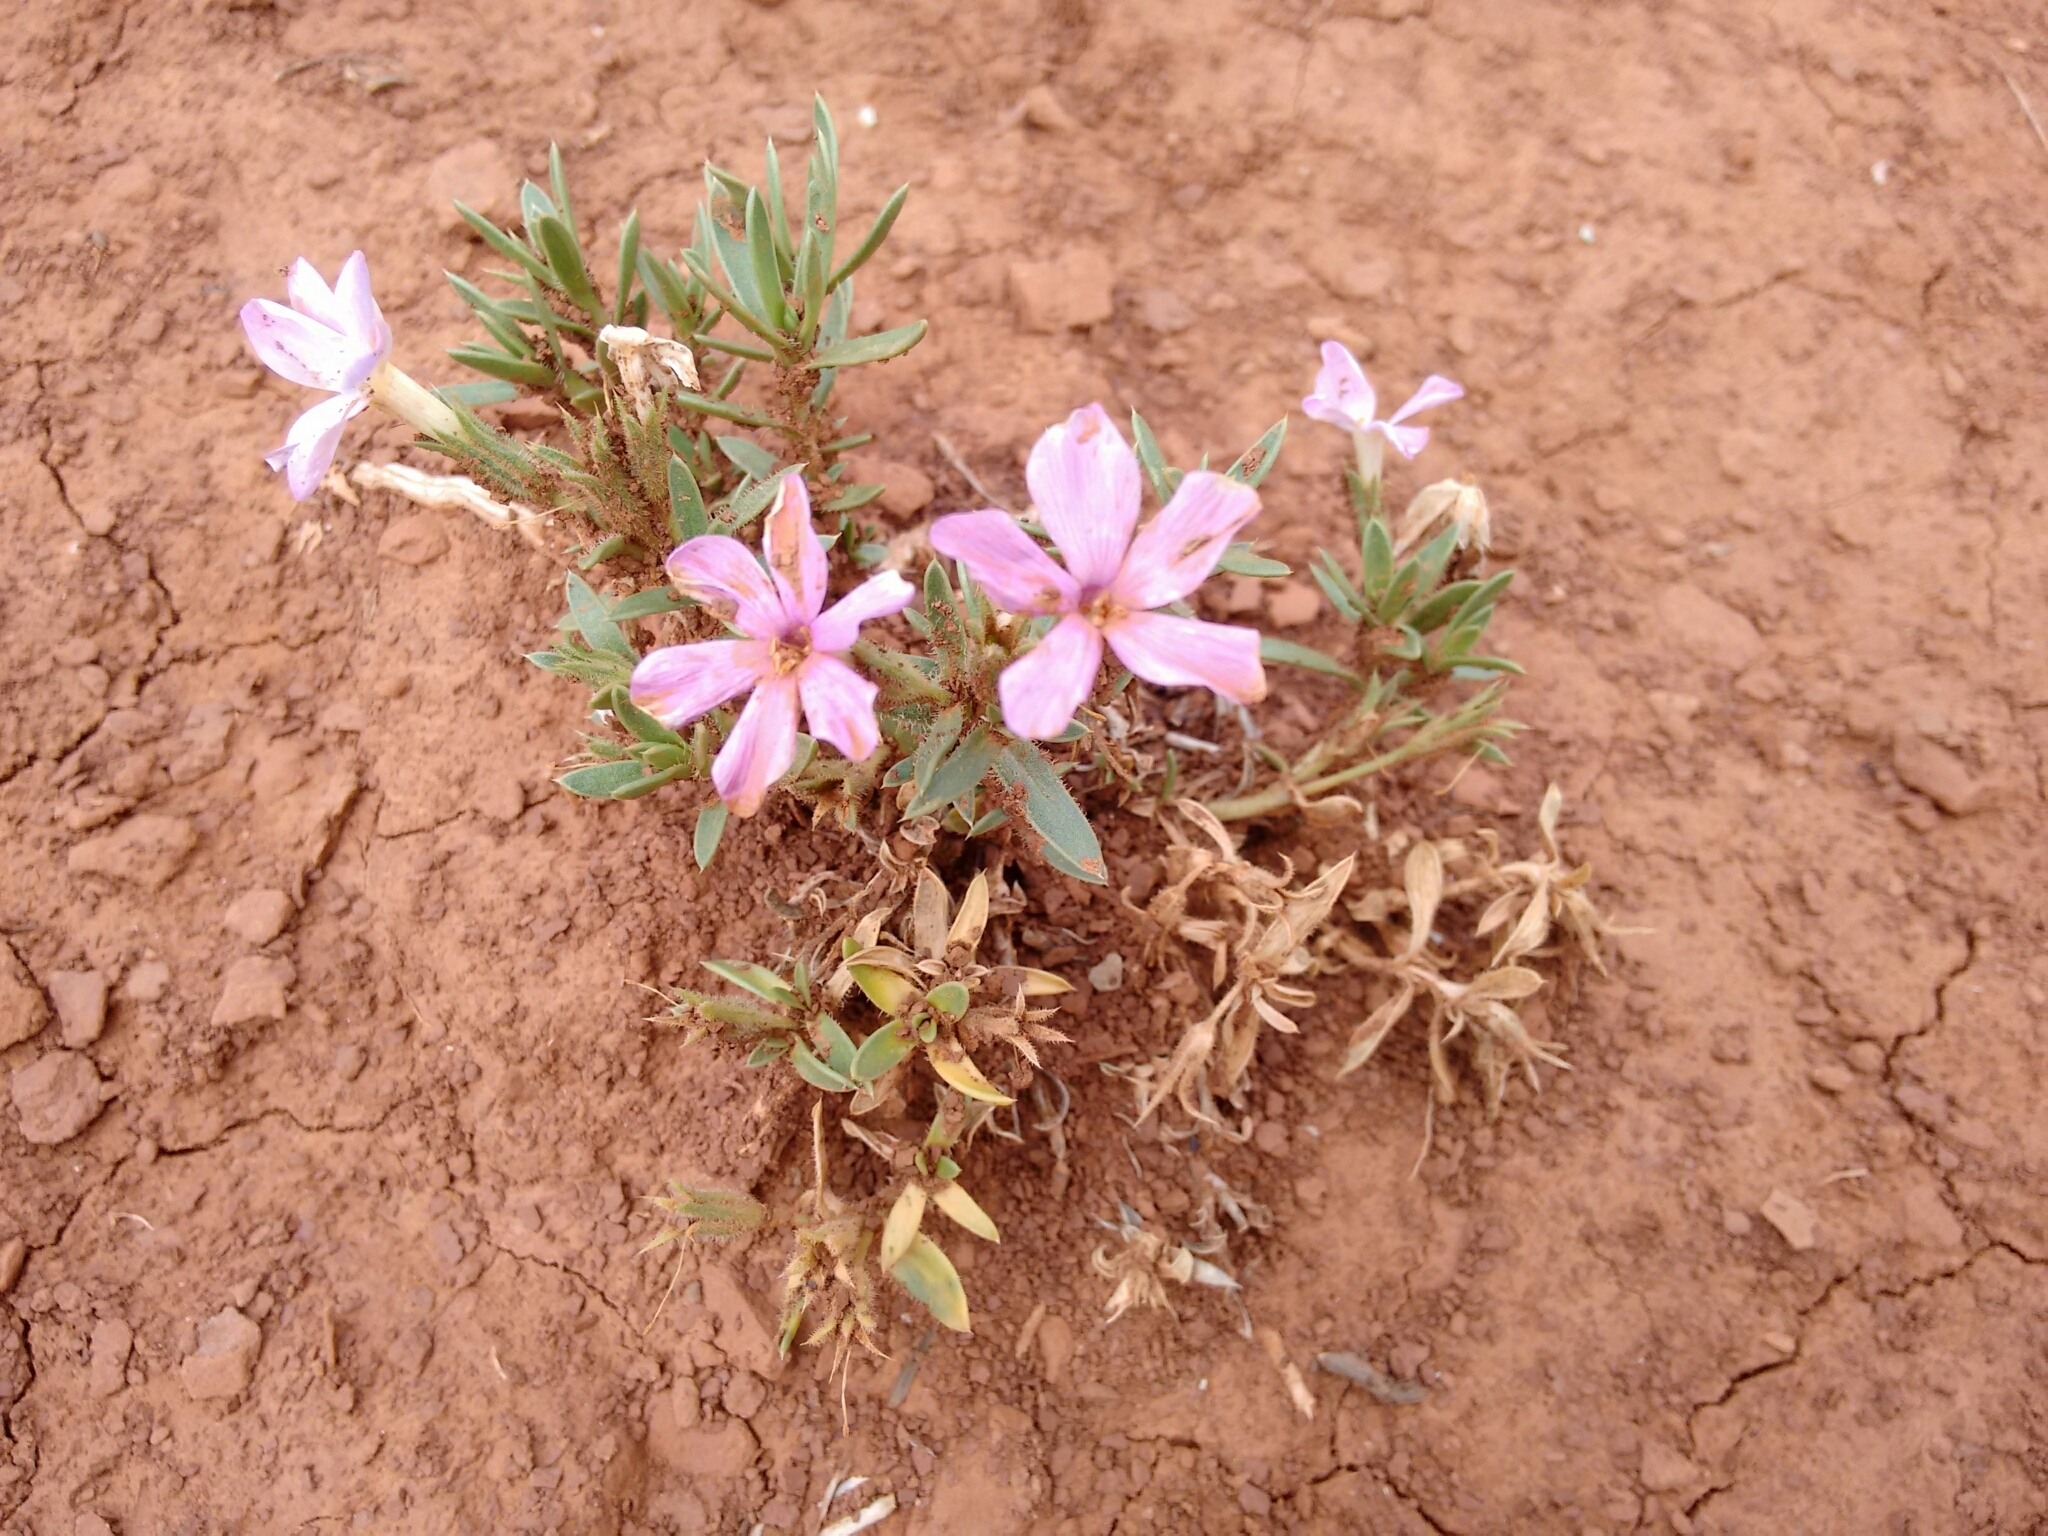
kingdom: Plantae
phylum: Tracheophyta
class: Magnoliopsida
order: Ericales
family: Polemoniaceae
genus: Phlox
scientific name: Phlox alyssifolia
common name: Blue phlox
